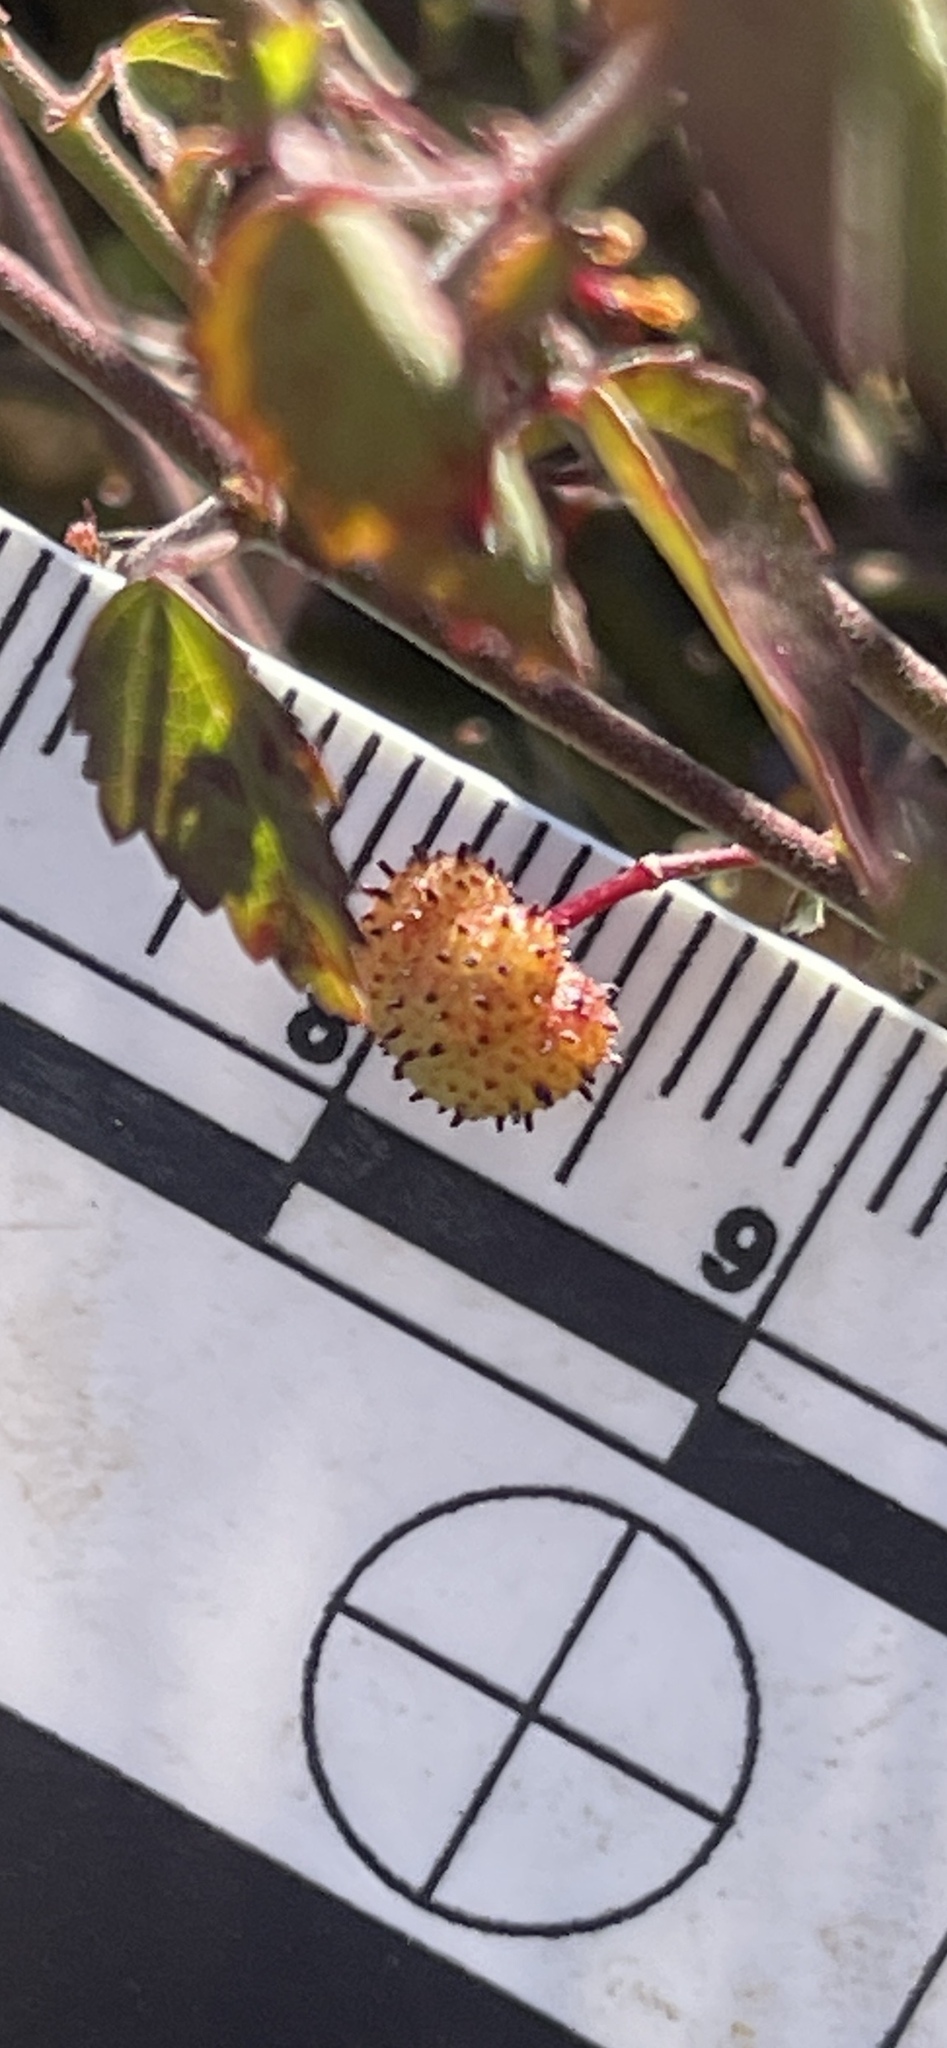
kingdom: Plantae
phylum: Tracheophyta
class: Magnoliopsida
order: Malvales
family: Malvaceae
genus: Ayenia
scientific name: Ayenia compacta
